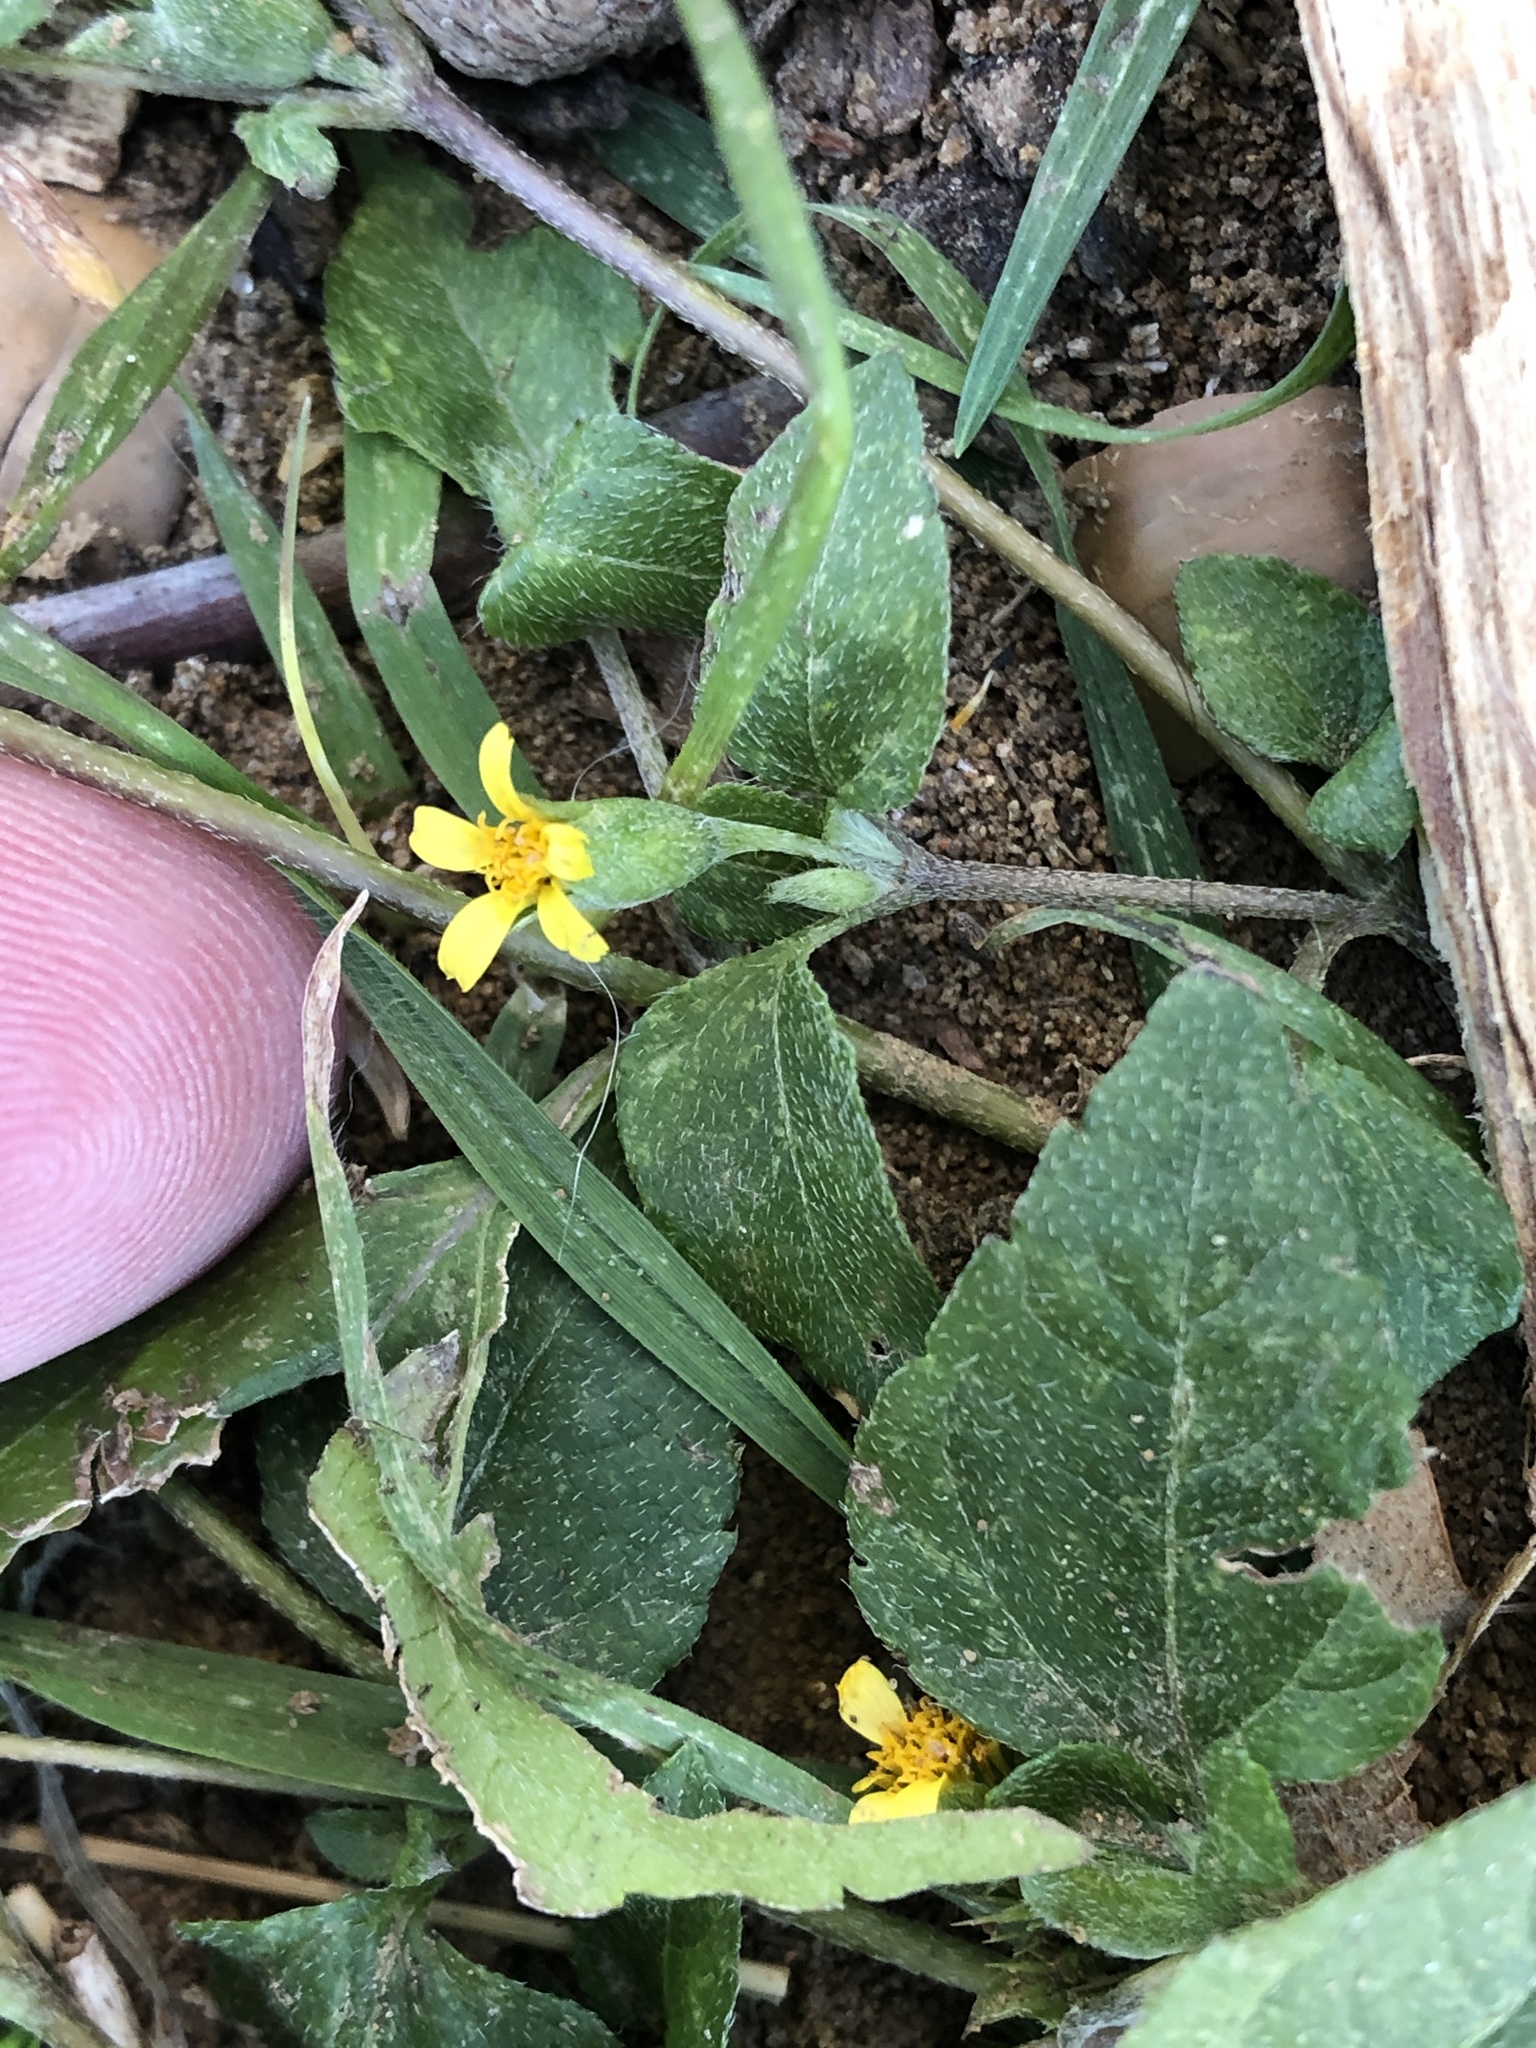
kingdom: Plantae
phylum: Tracheophyta
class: Magnoliopsida
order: Asterales
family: Asteraceae
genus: Calyptocarpus
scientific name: Calyptocarpus vialis
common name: Straggler daisy
